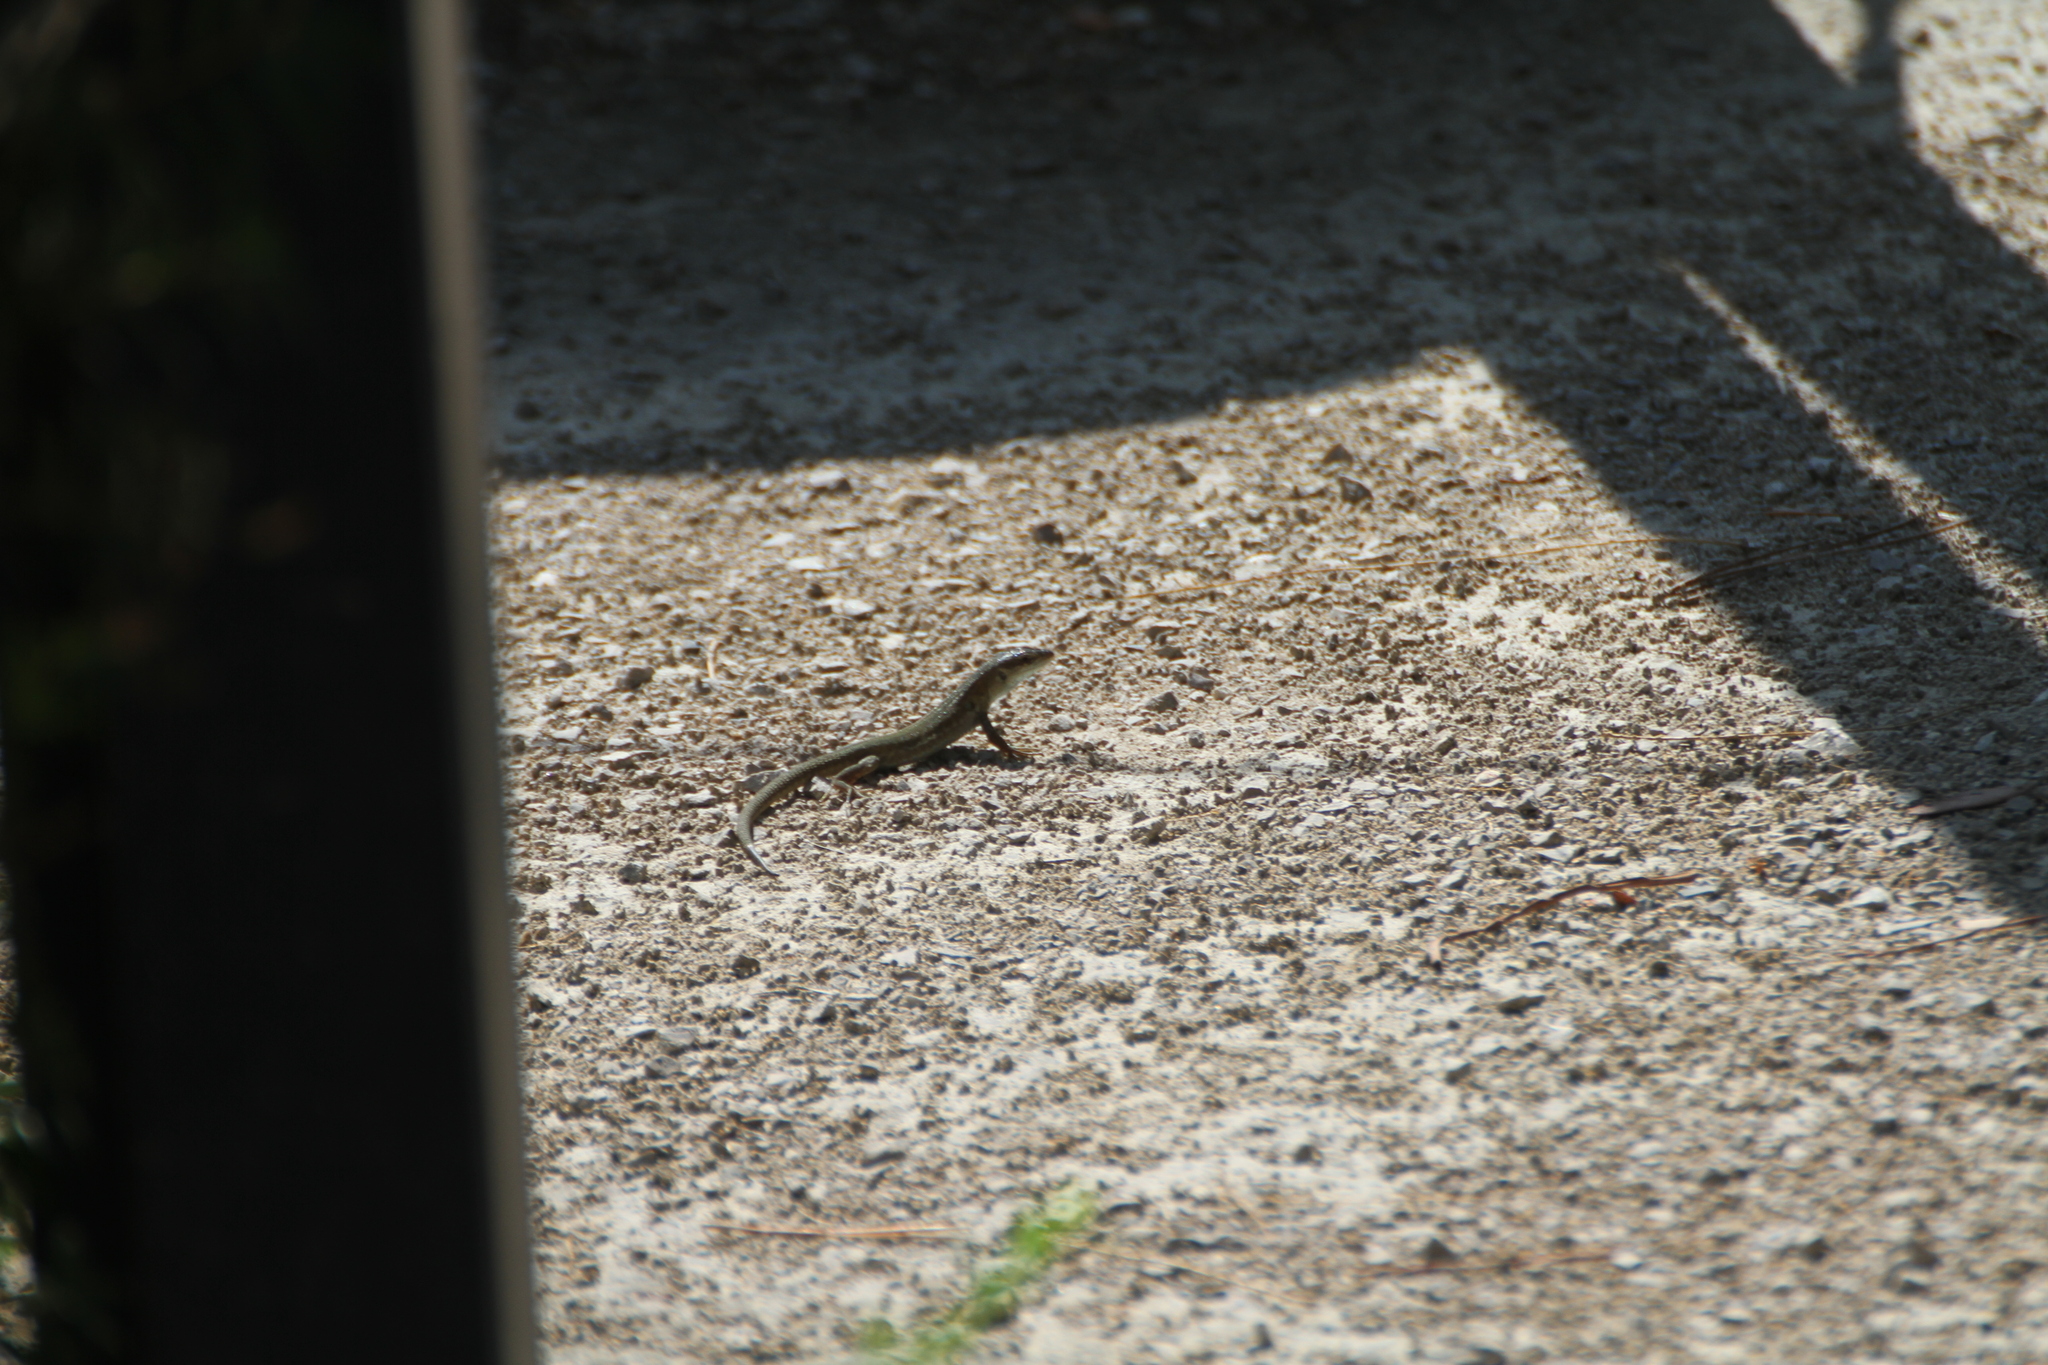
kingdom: Animalia
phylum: Chordata
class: Squamata
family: Lacertidae
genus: Podarcis
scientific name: Podarcis siculus
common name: Italian wall lizard
